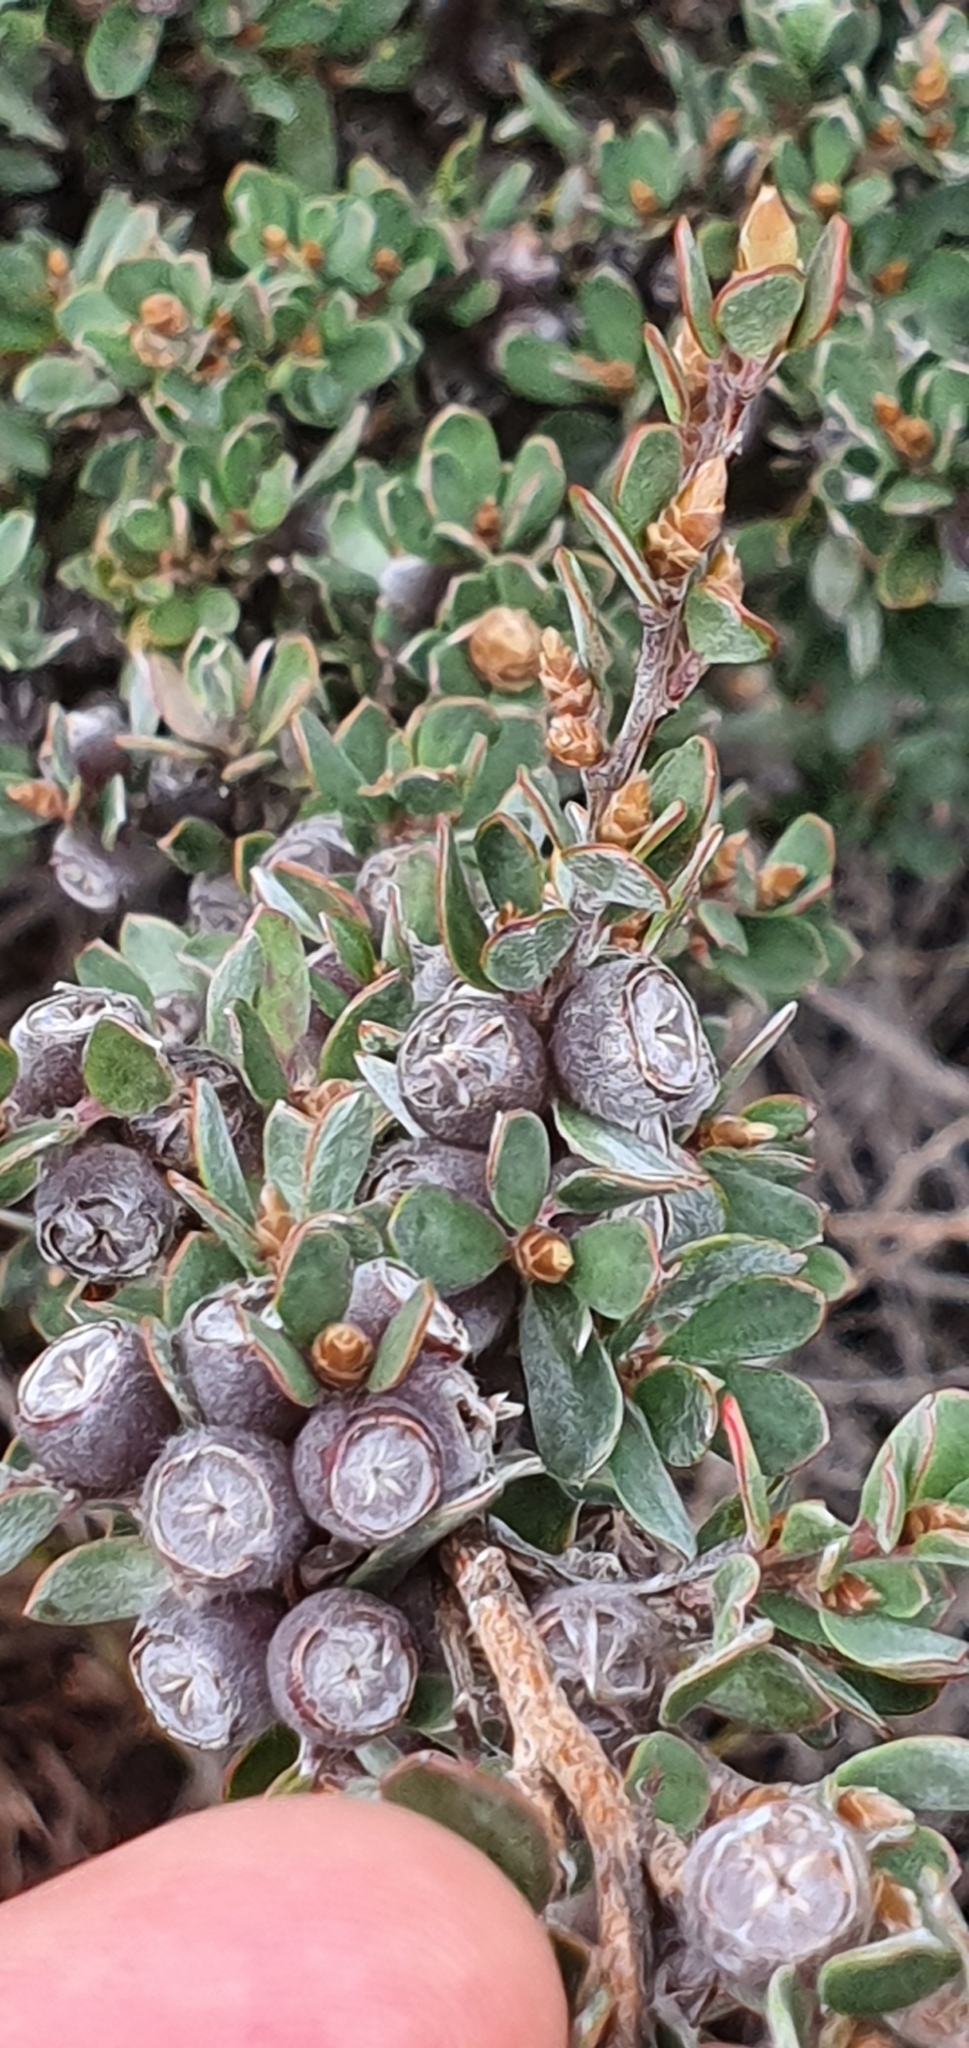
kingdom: Plantae
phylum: Tracheophyta
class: Magnoliopsida
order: Myrtales
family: Myrtaceae
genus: Leptospermum
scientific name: Leptospermum glaucescens
